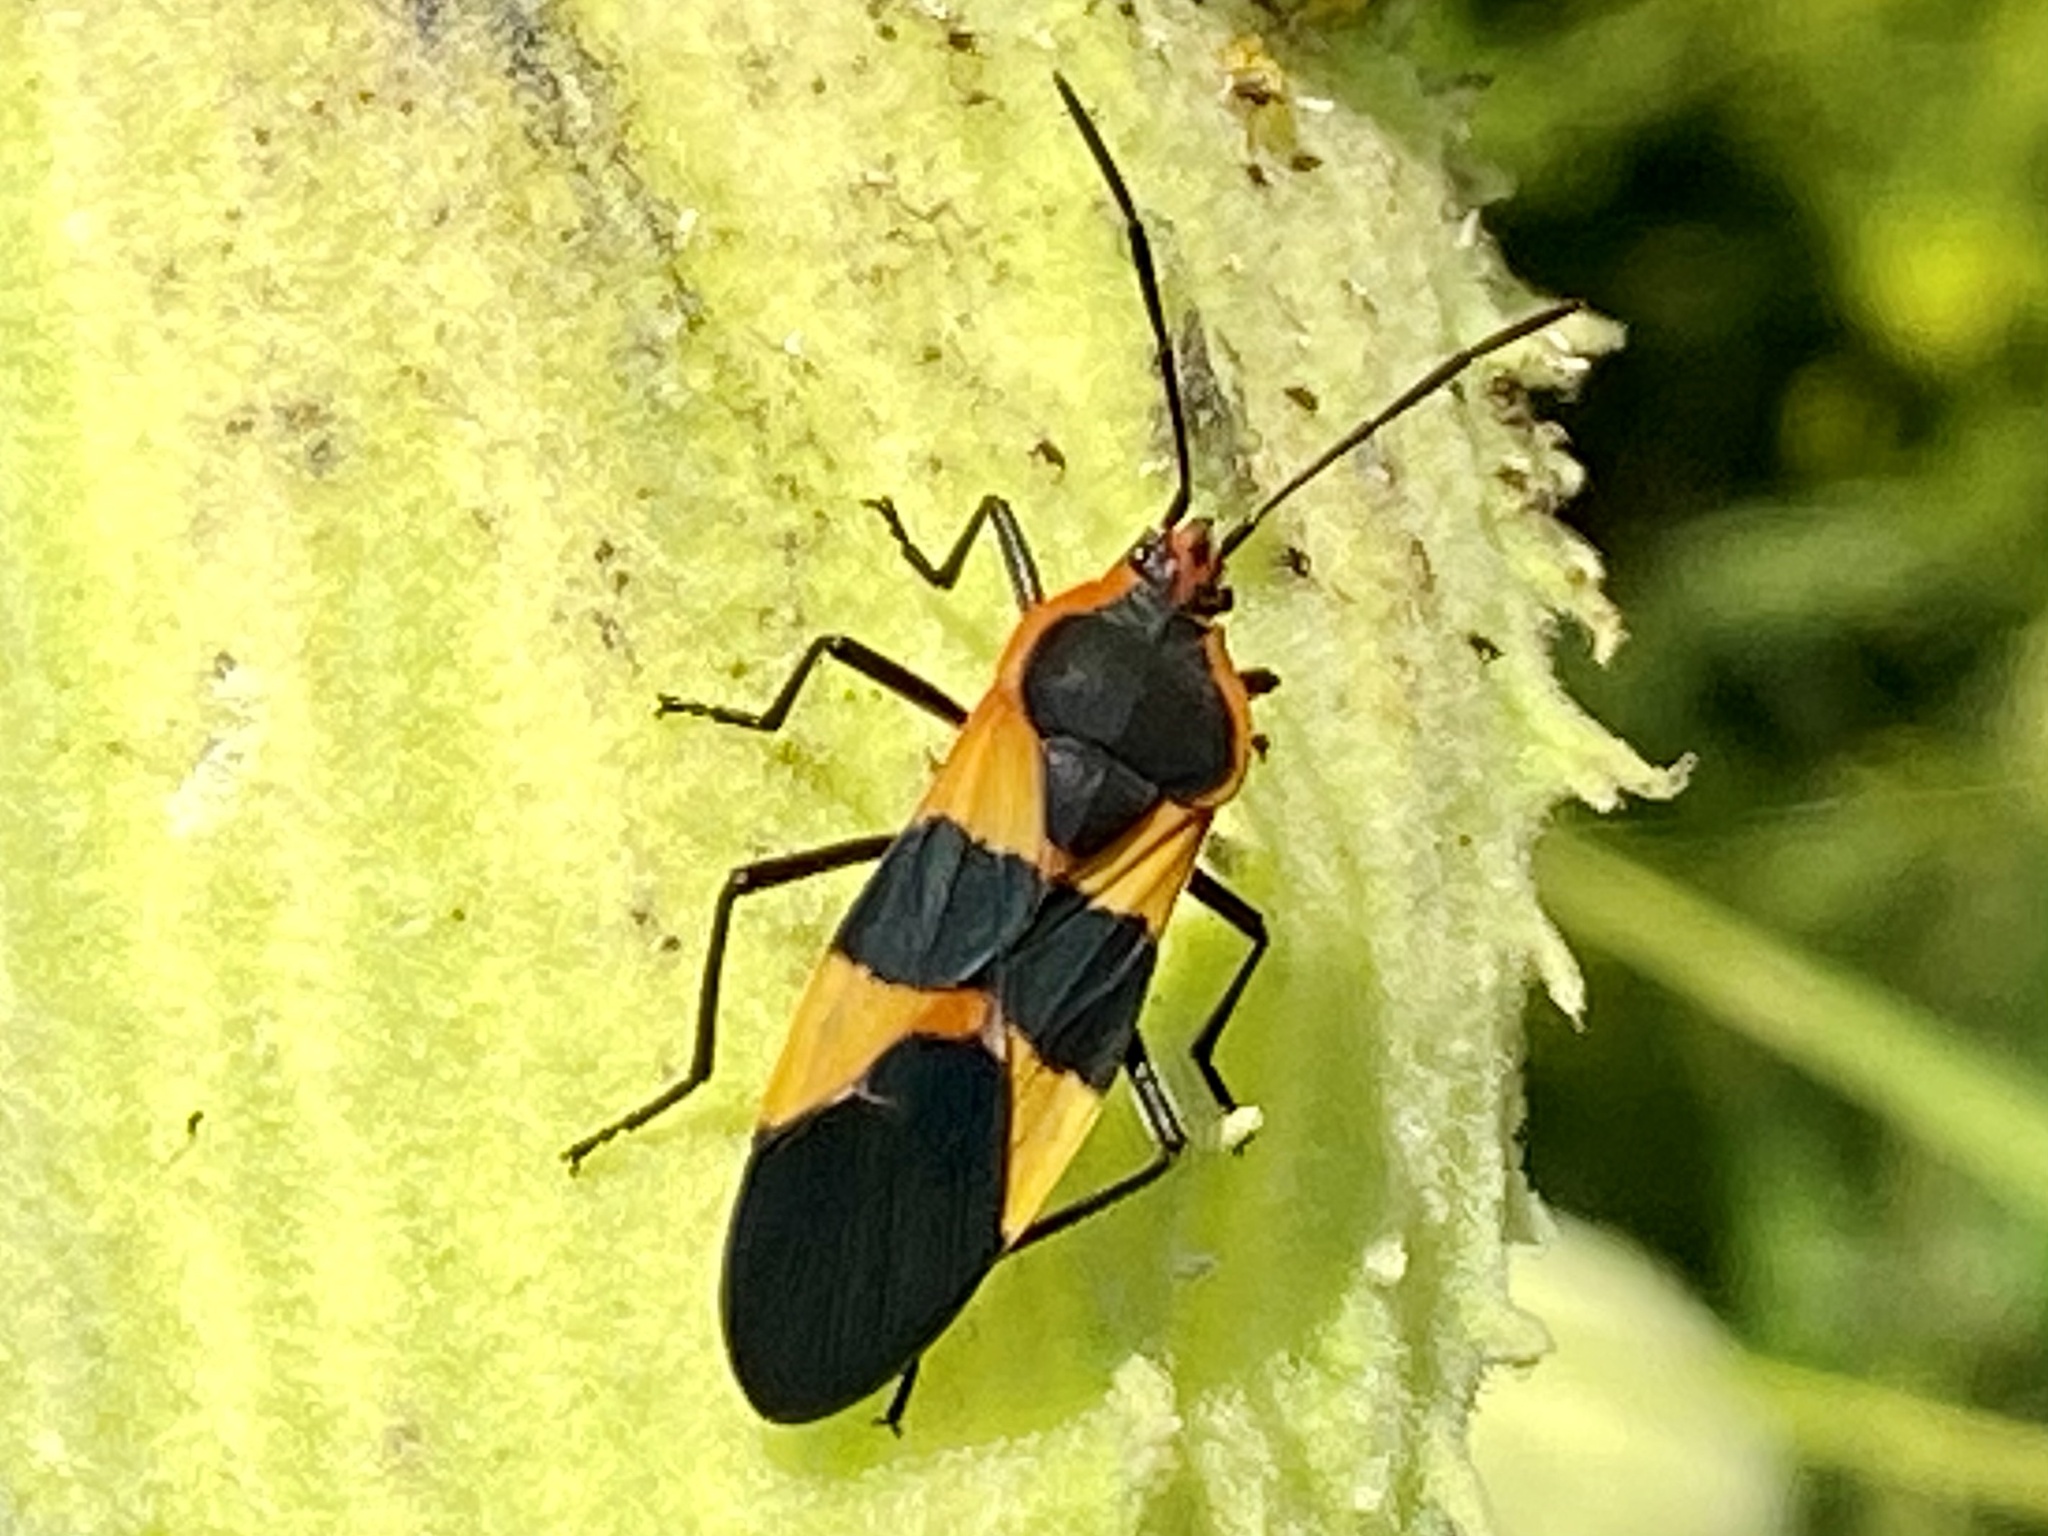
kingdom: Animalia
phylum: Arthropoda
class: Insecta
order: Hemiptera
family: Lygaeidae
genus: Oncopeltus
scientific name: Oncopeltus fasciatus
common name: Large milkweed bug
